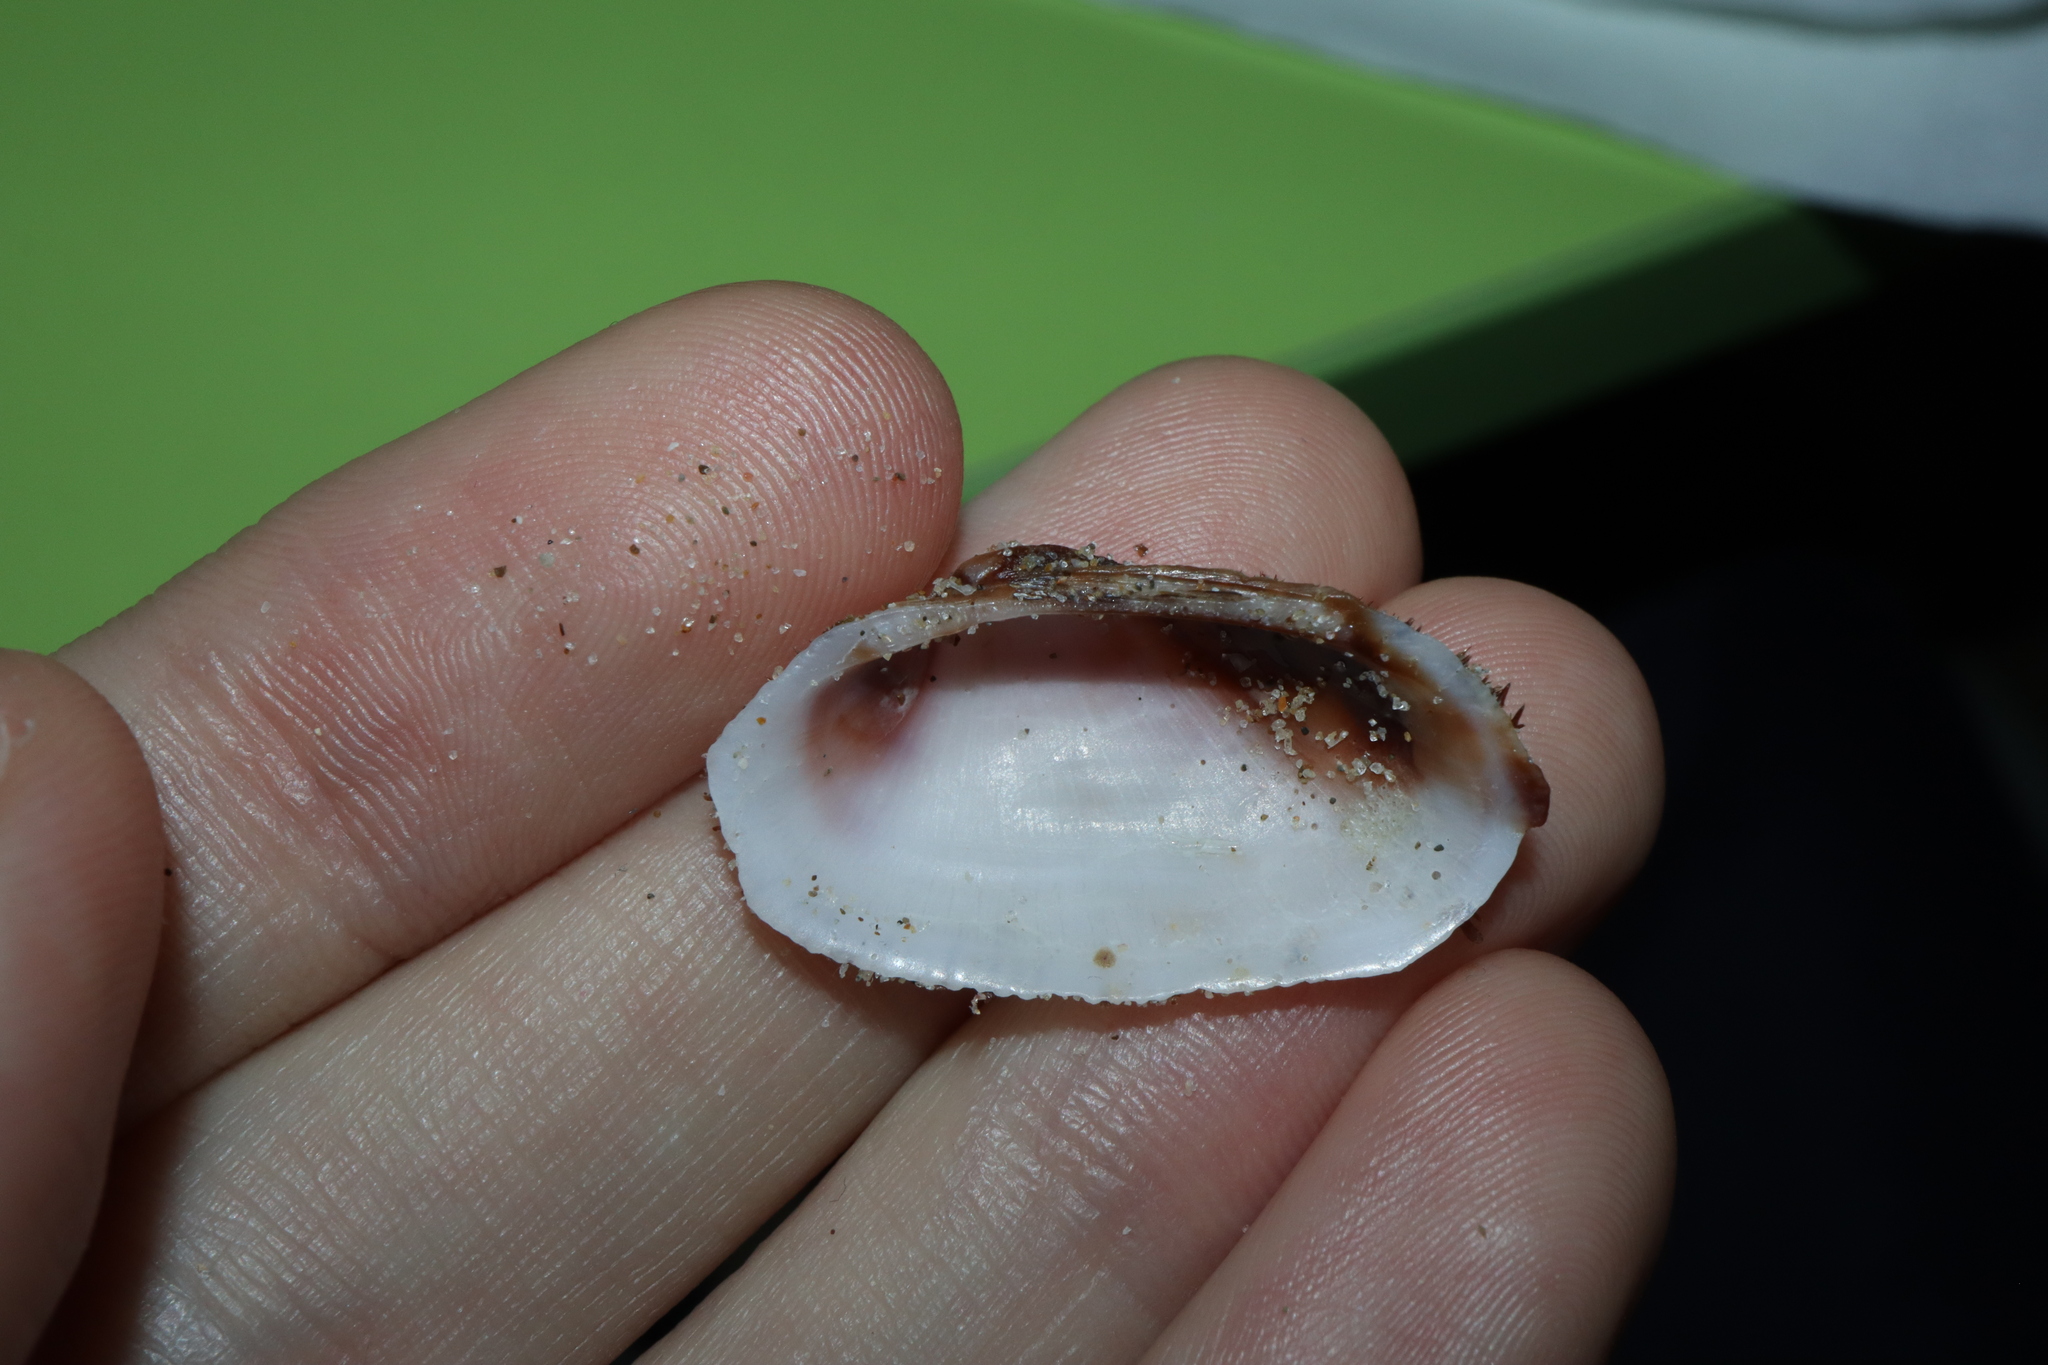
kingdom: Animalia
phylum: Mollusca
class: Bivalvia
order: Arcida
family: Arcidae
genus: Barbatia
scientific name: Barbatia pistachia
